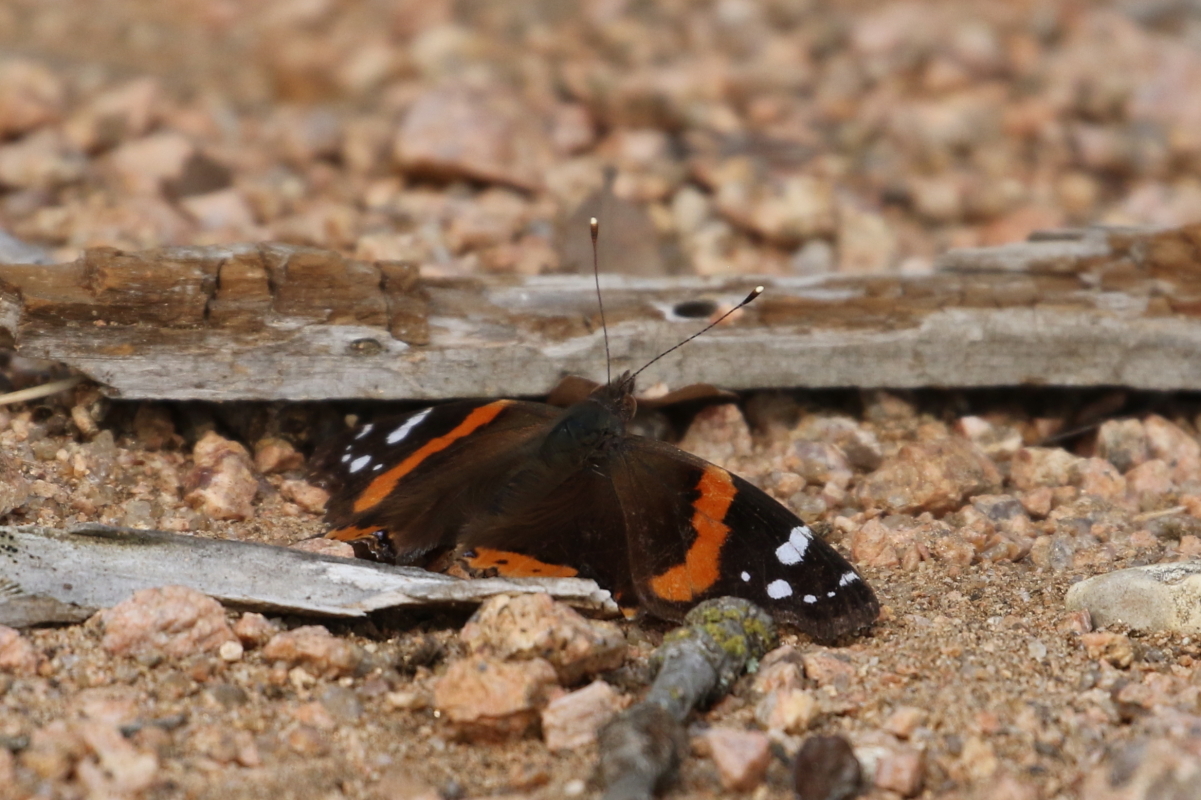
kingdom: Animalia
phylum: Arthropoda
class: Insecta
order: Lepidoptera
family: Nymphalidae
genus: Vanessa
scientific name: Vanessa atalanta
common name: Red admiral
